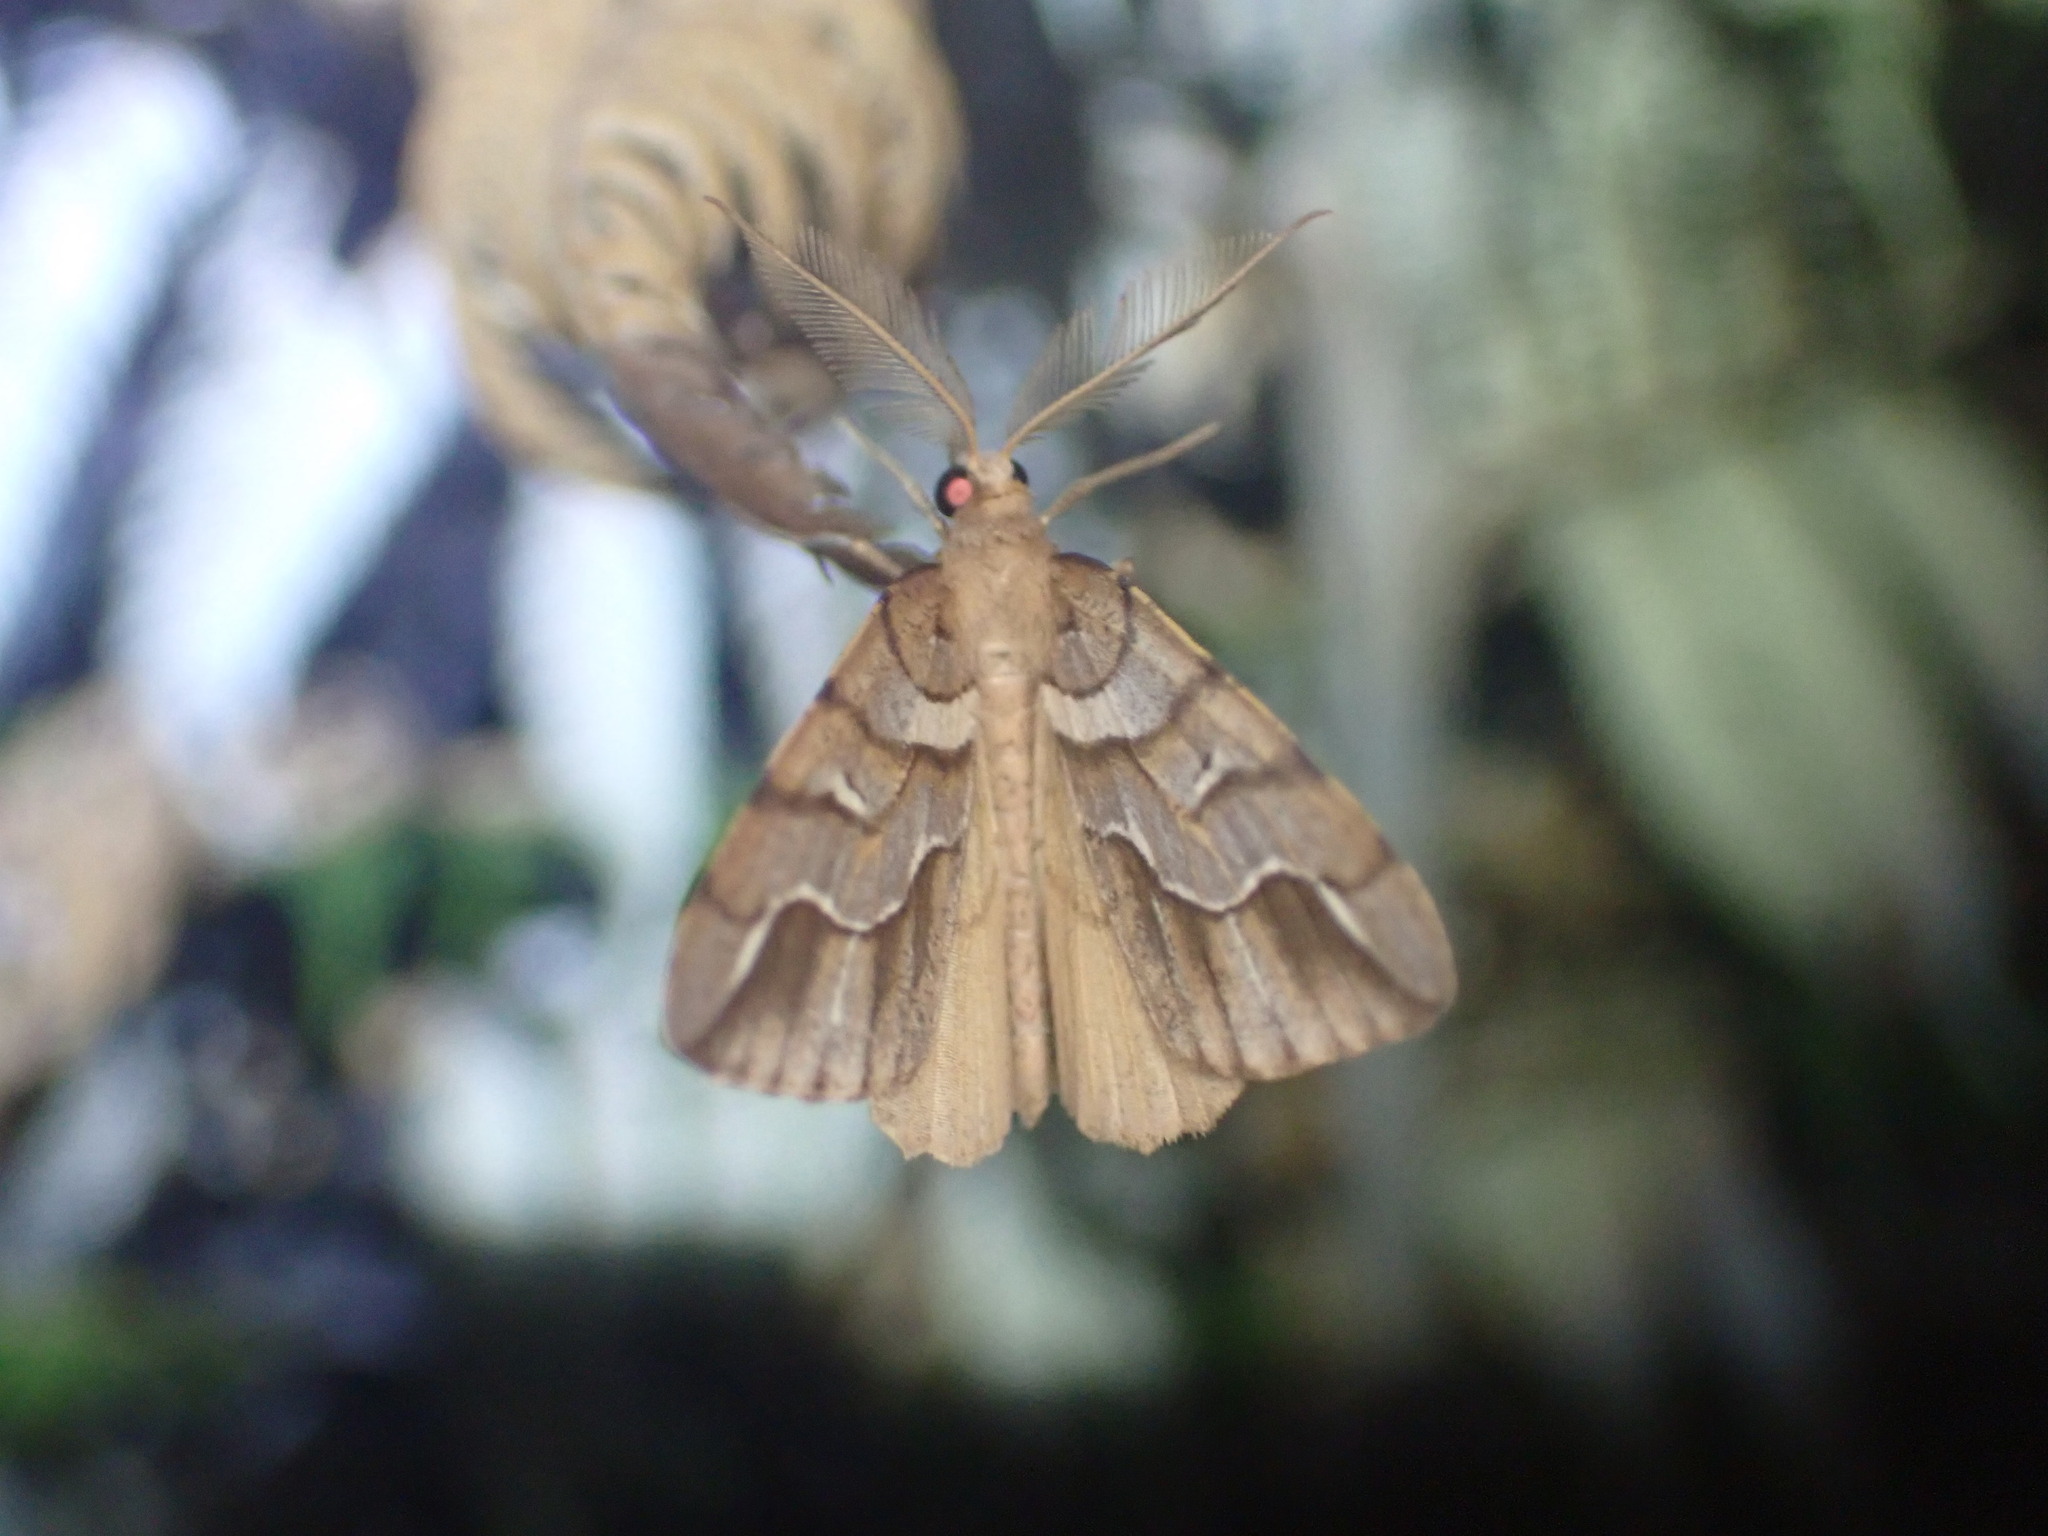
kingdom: Animalia
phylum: Arthropoda
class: Insecta
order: Lepidoptera
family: Geometridae
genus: Chalastra
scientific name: Chalastra aristarcha
